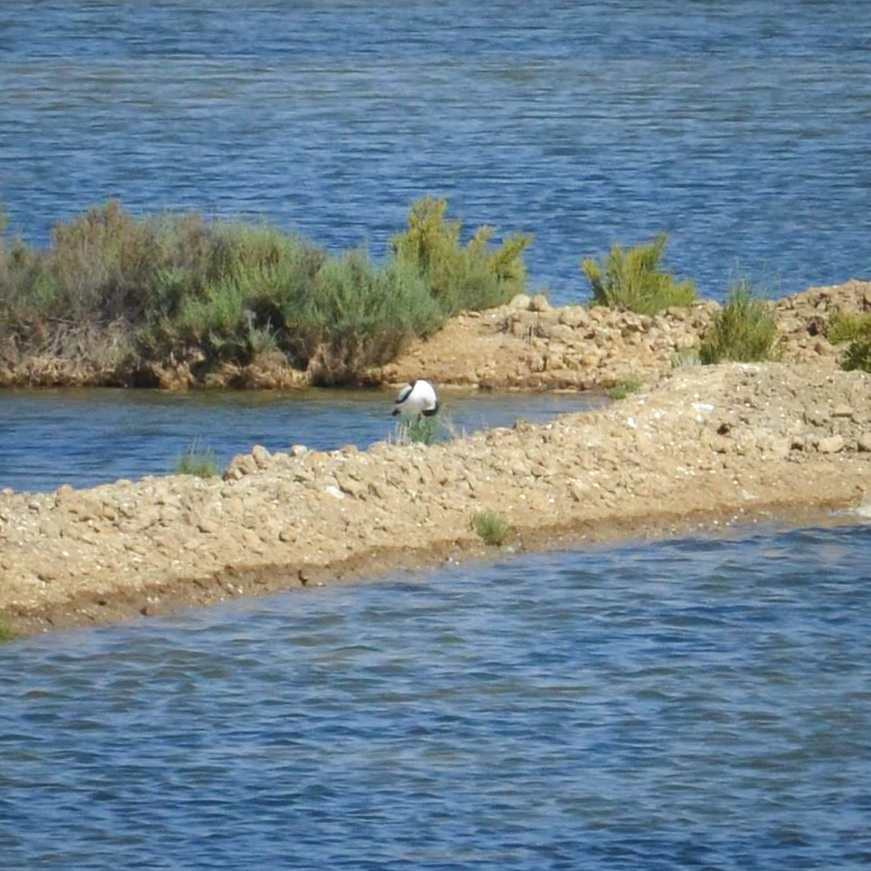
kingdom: Animalia
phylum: Chordata
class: Aves
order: Charadriiformes
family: Recurvirostridae
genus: Recurvirostra
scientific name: Recurvirostra avosetta
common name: Pied avocet
